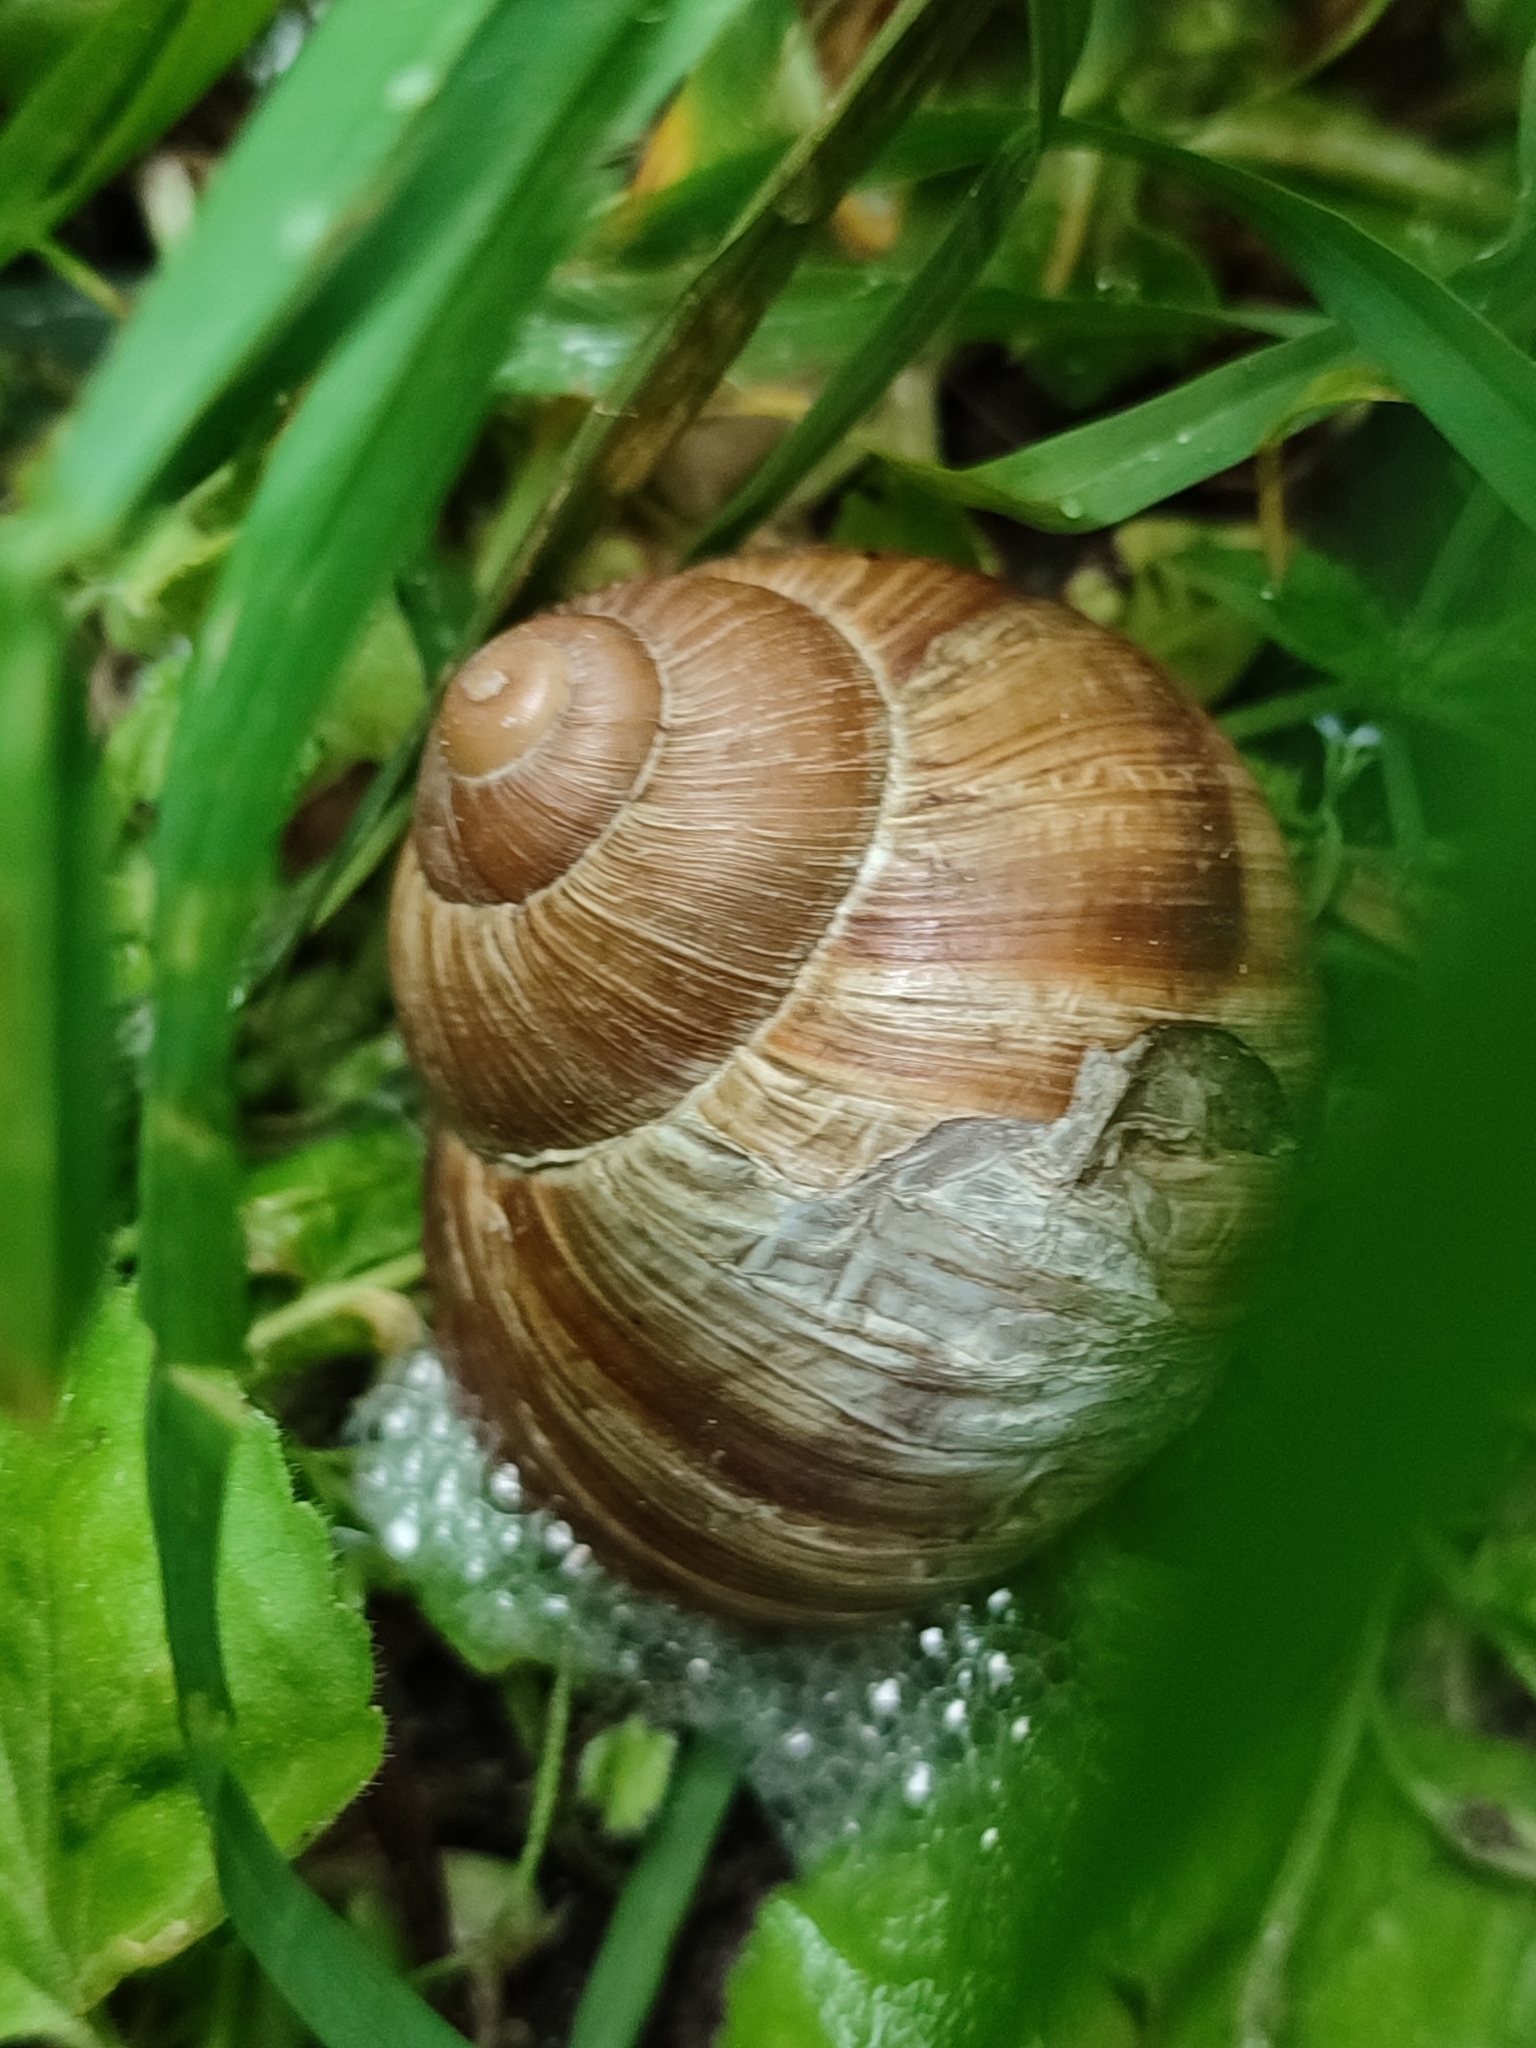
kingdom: Animalia
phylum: Mollusca
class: Gastropoda
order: Stylommatophora
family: Helicidae
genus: Helix
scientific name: Helix pomatia
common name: Roman snail
